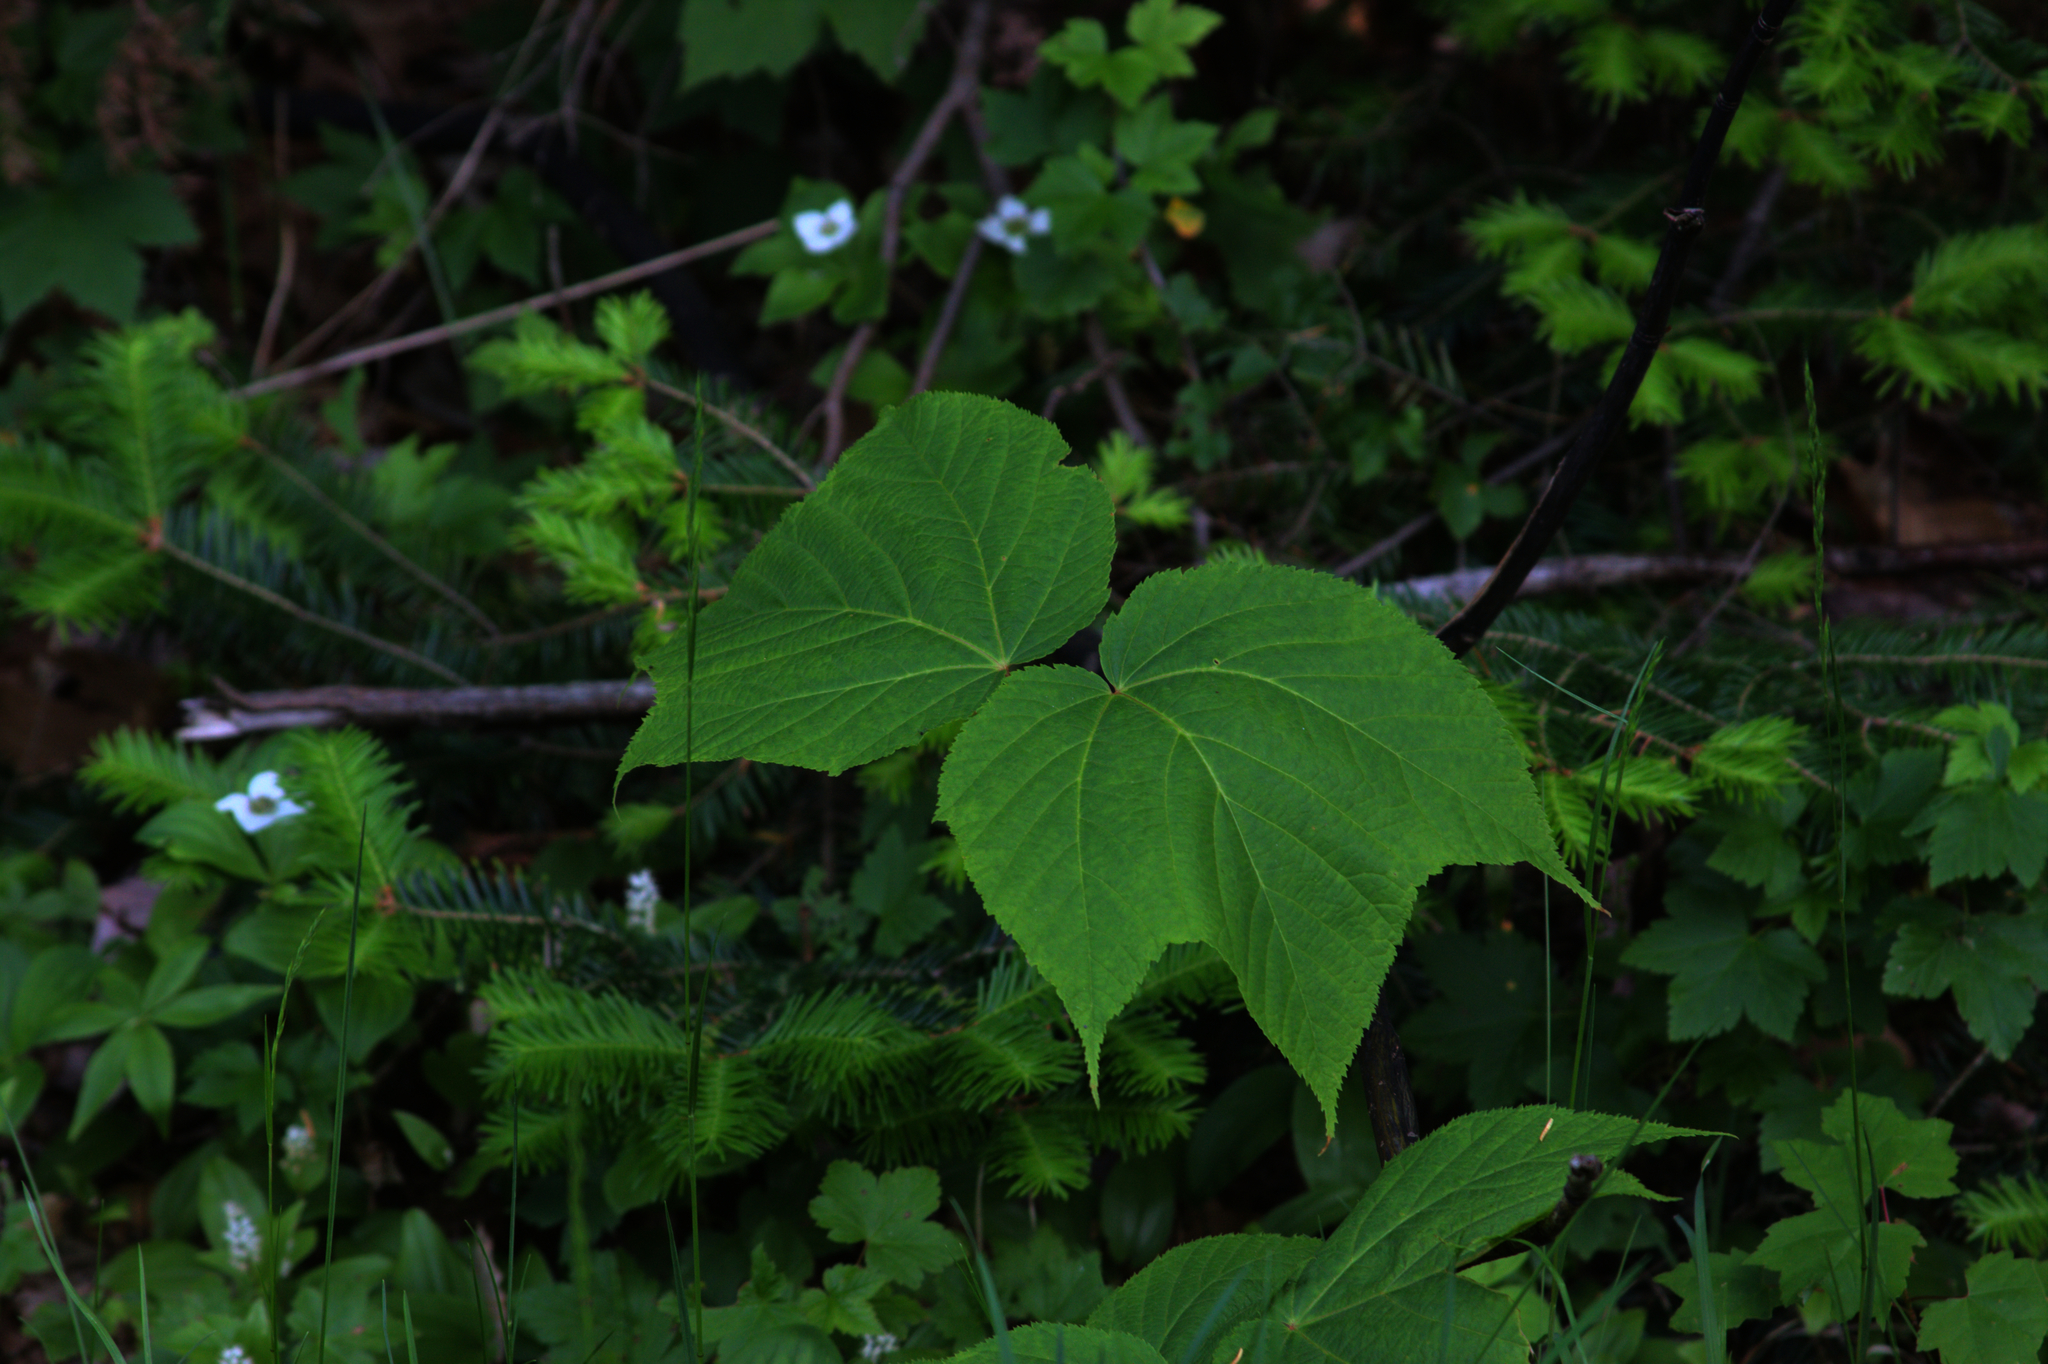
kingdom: Plantae
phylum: Tracheophyta
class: Pinopsida
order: Pinales
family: Pinaceae
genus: Abies
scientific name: Abies balsamea
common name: Balsam fir
